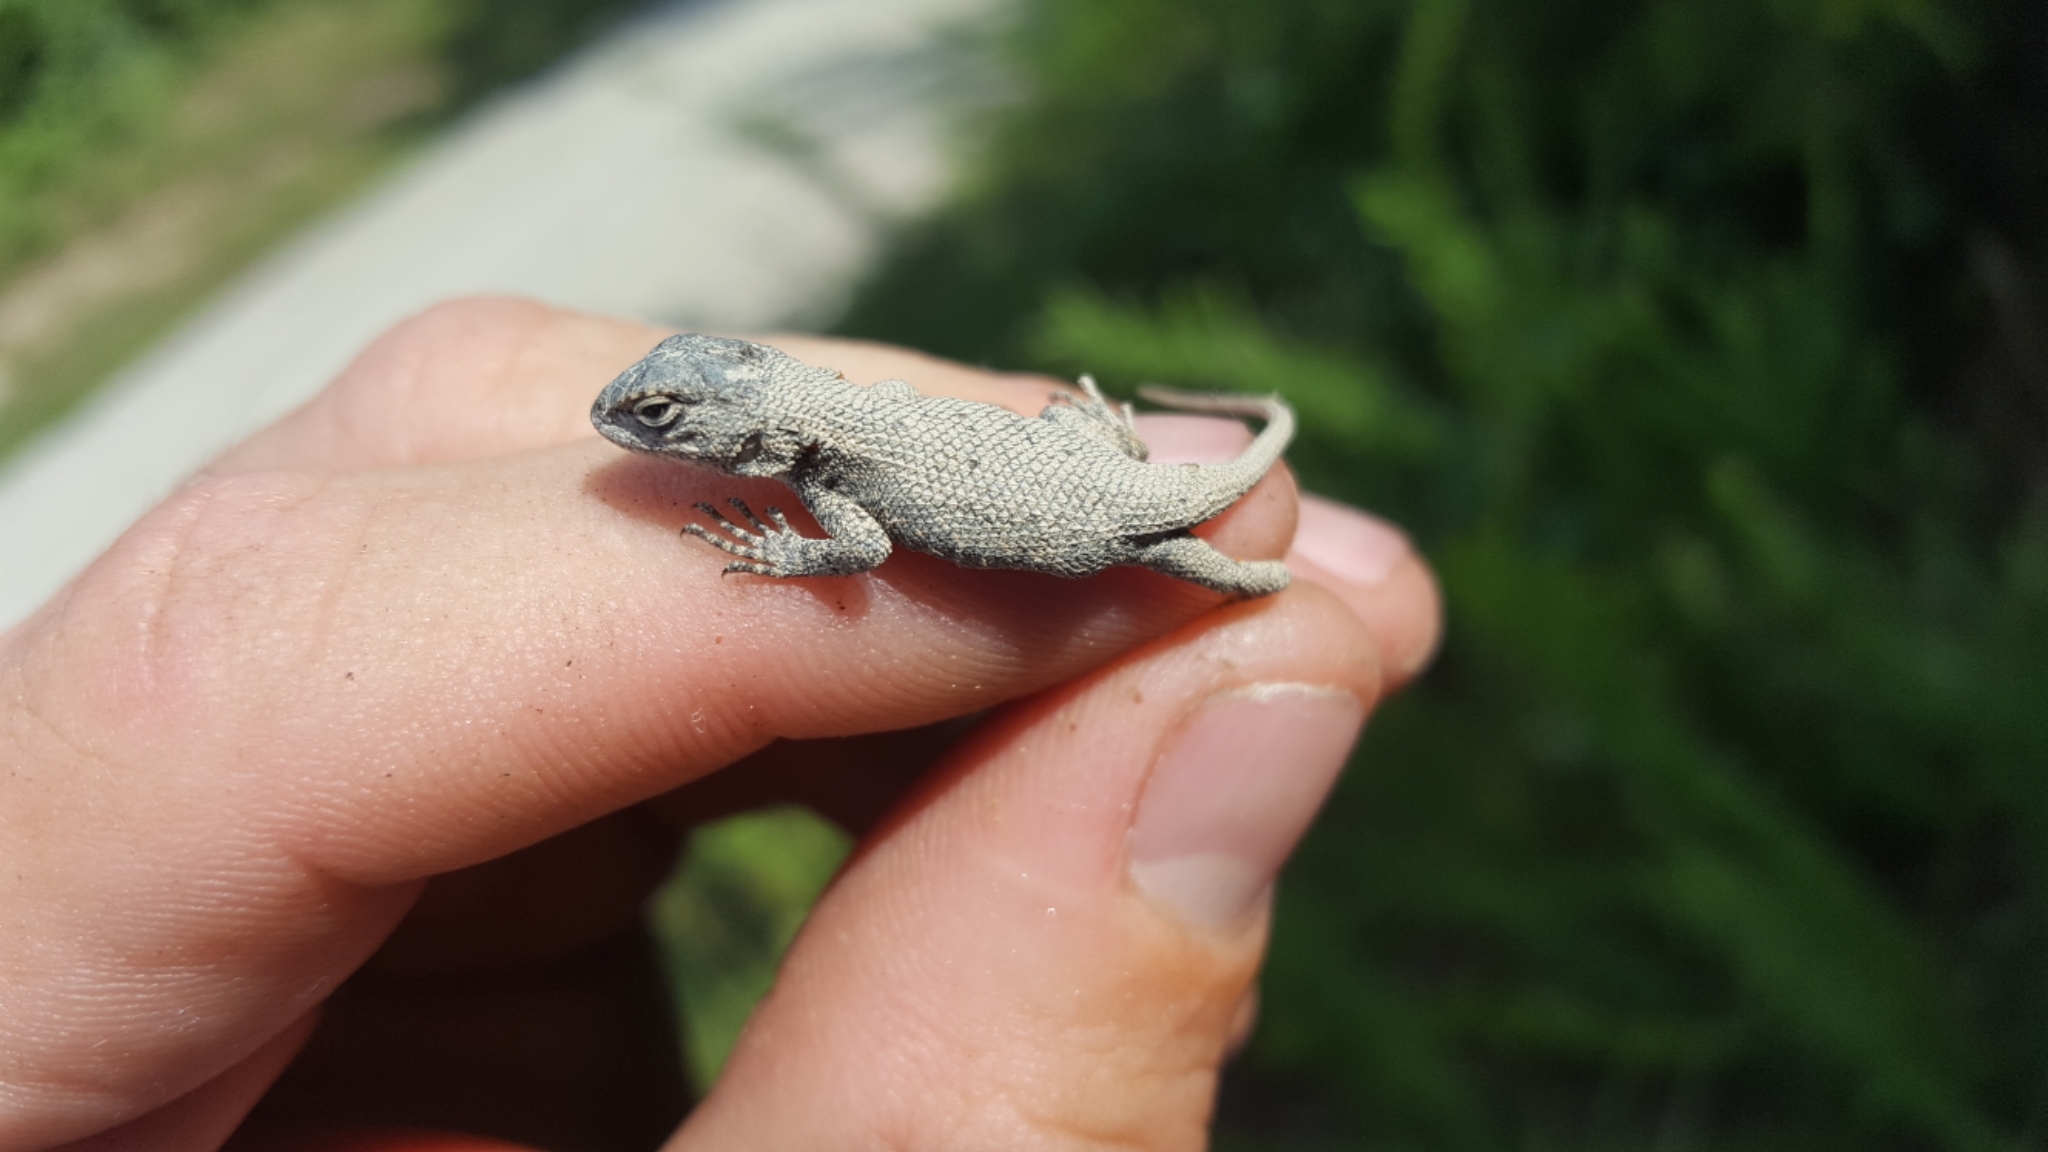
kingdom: Animalia
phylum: Chordata
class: Squamata
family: Phrynosomatidae
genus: Sceloporus
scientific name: Sceloporus consobrinus
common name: Southern prairie lizard
